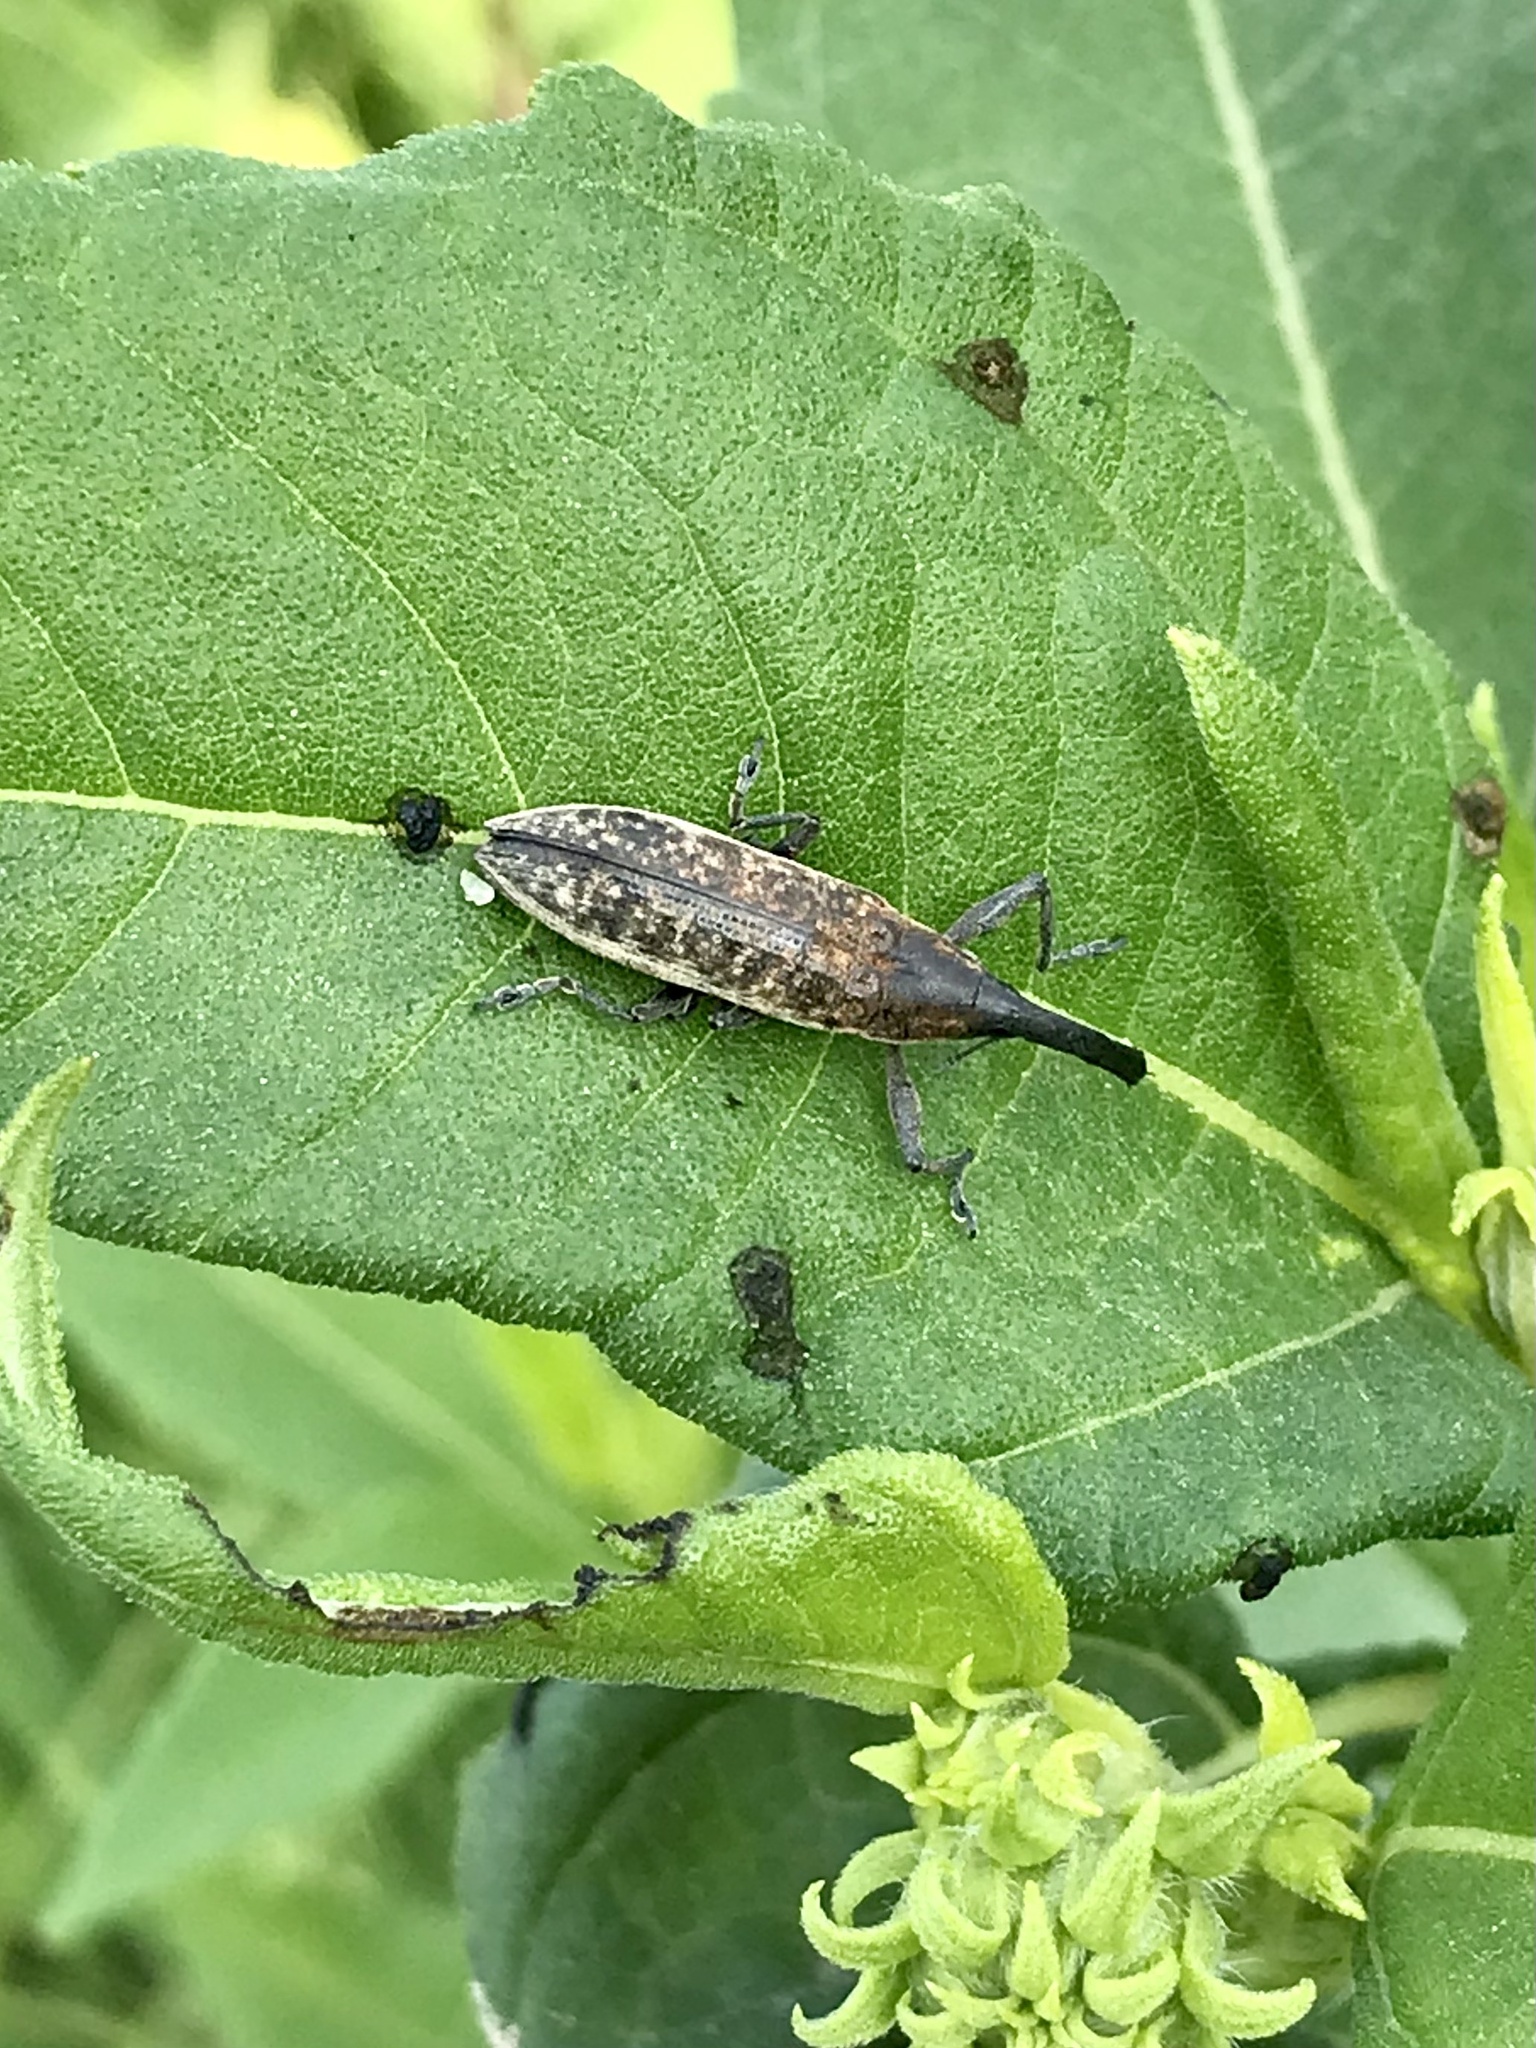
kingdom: Animalia
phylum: Arthropoda
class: Insecta
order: Coleoptera
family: Curculionidae
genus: Lixus
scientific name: Lixus macer
